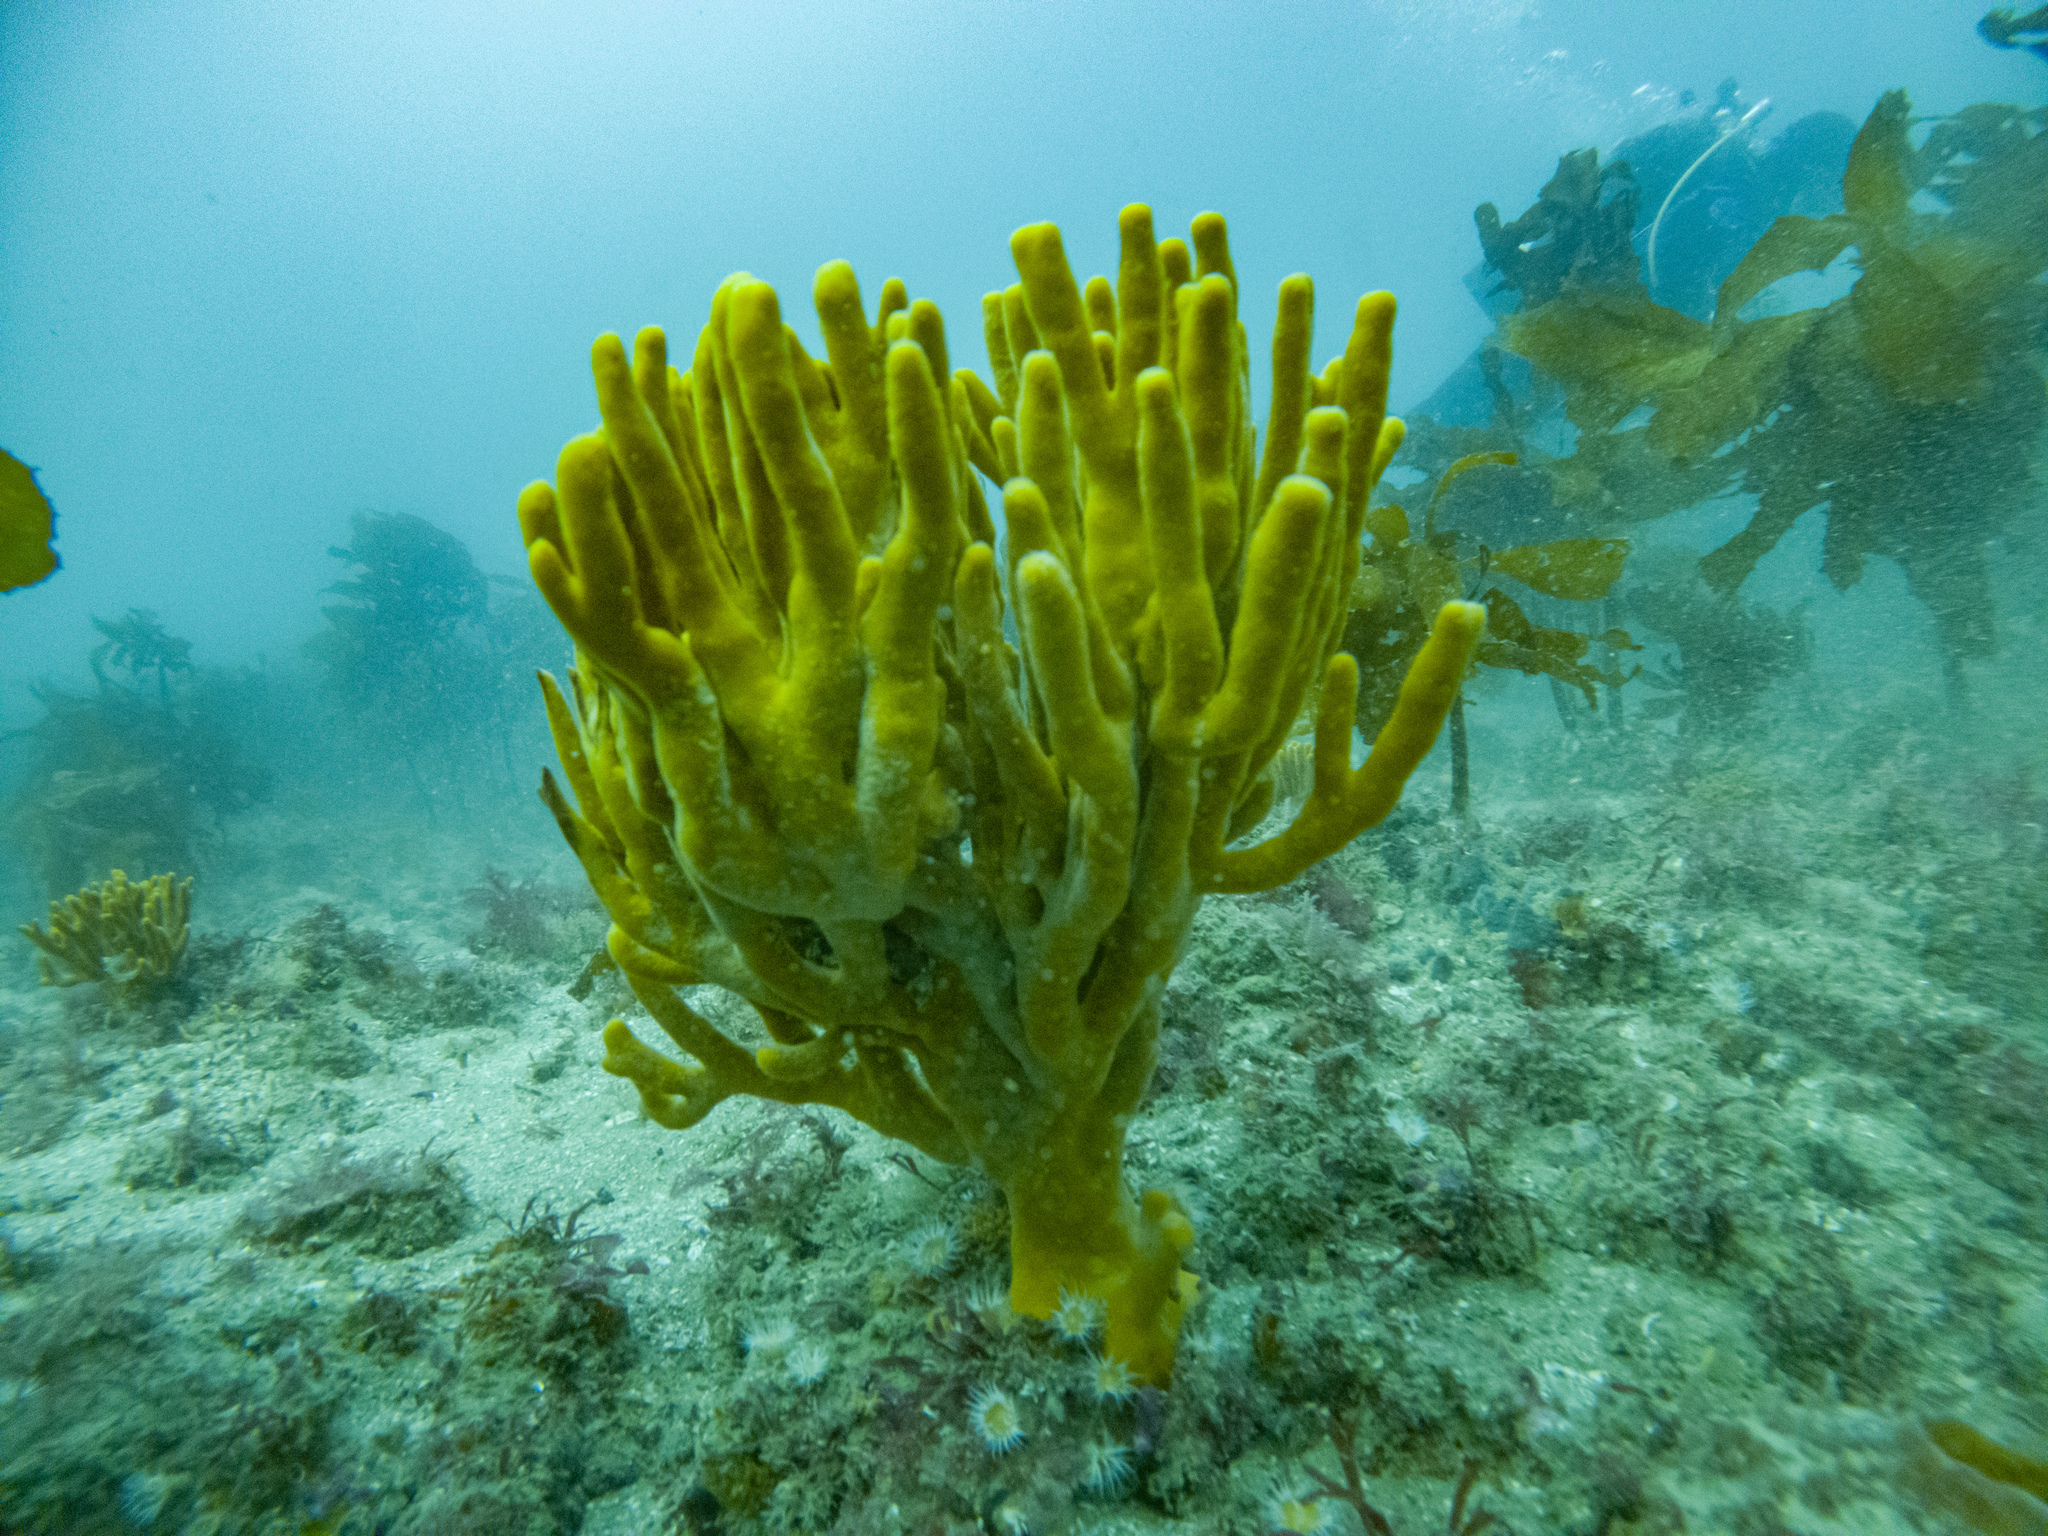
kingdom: Animalia
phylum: Porifera
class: Demospongiae
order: Poecilosclerida
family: Acarnidae
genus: Iophon
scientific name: Iophon minor
